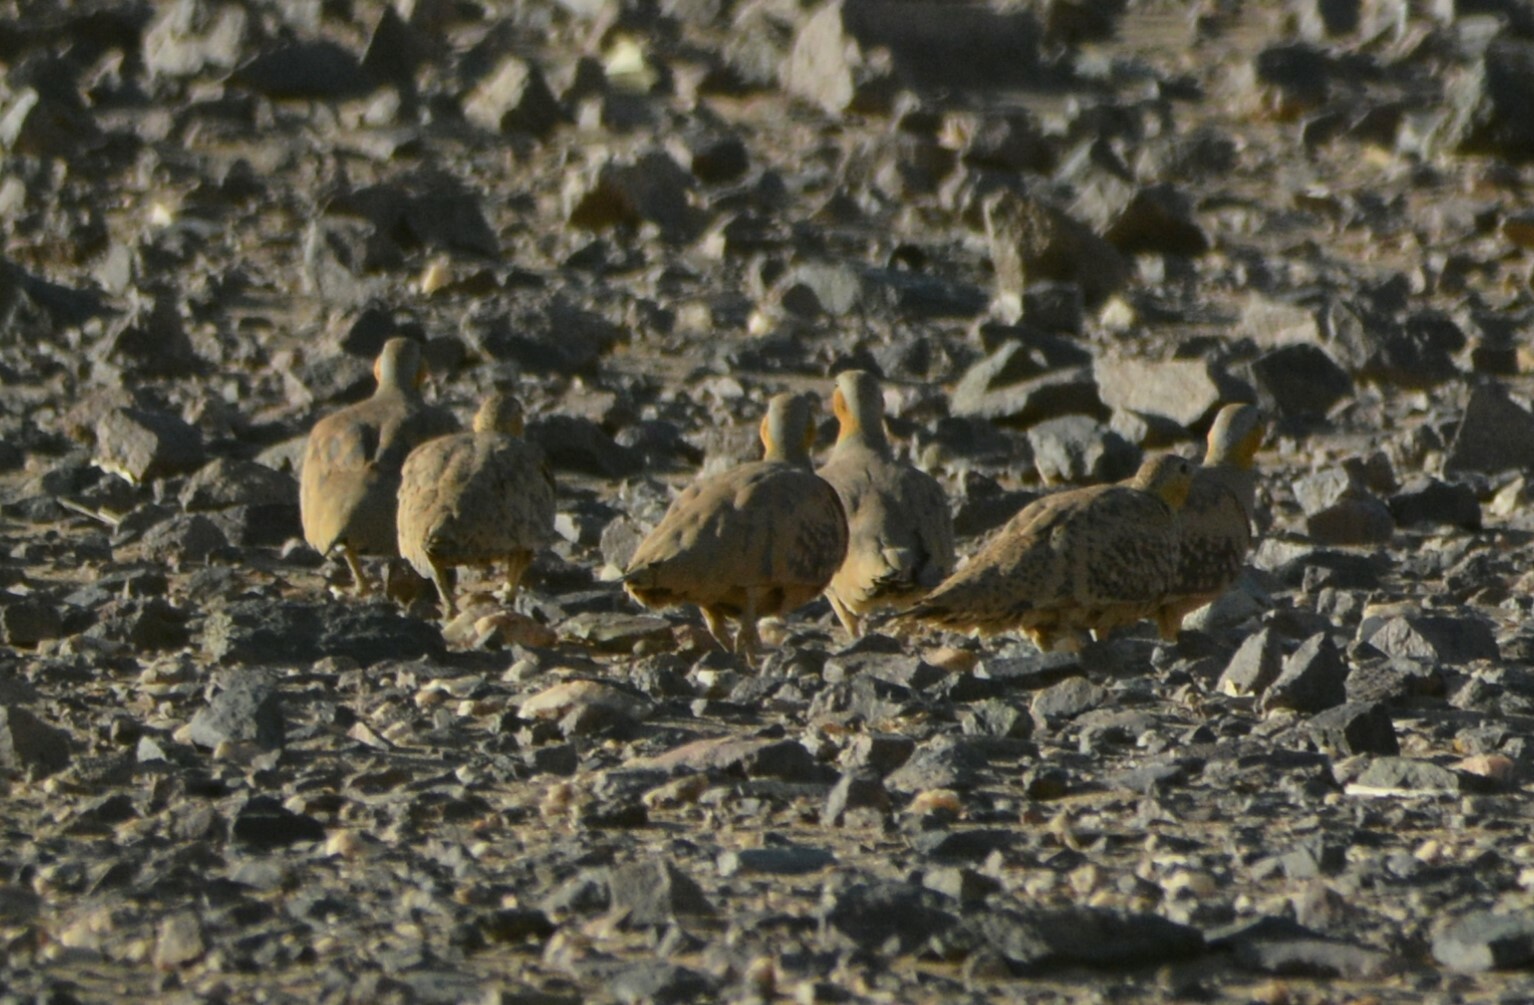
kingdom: Animalia
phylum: Chordata
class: Aves
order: Pteroclidiformes
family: Pteroclididae
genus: Pterocles
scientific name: Pterocles senegallus
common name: Spotted sandgrouse
